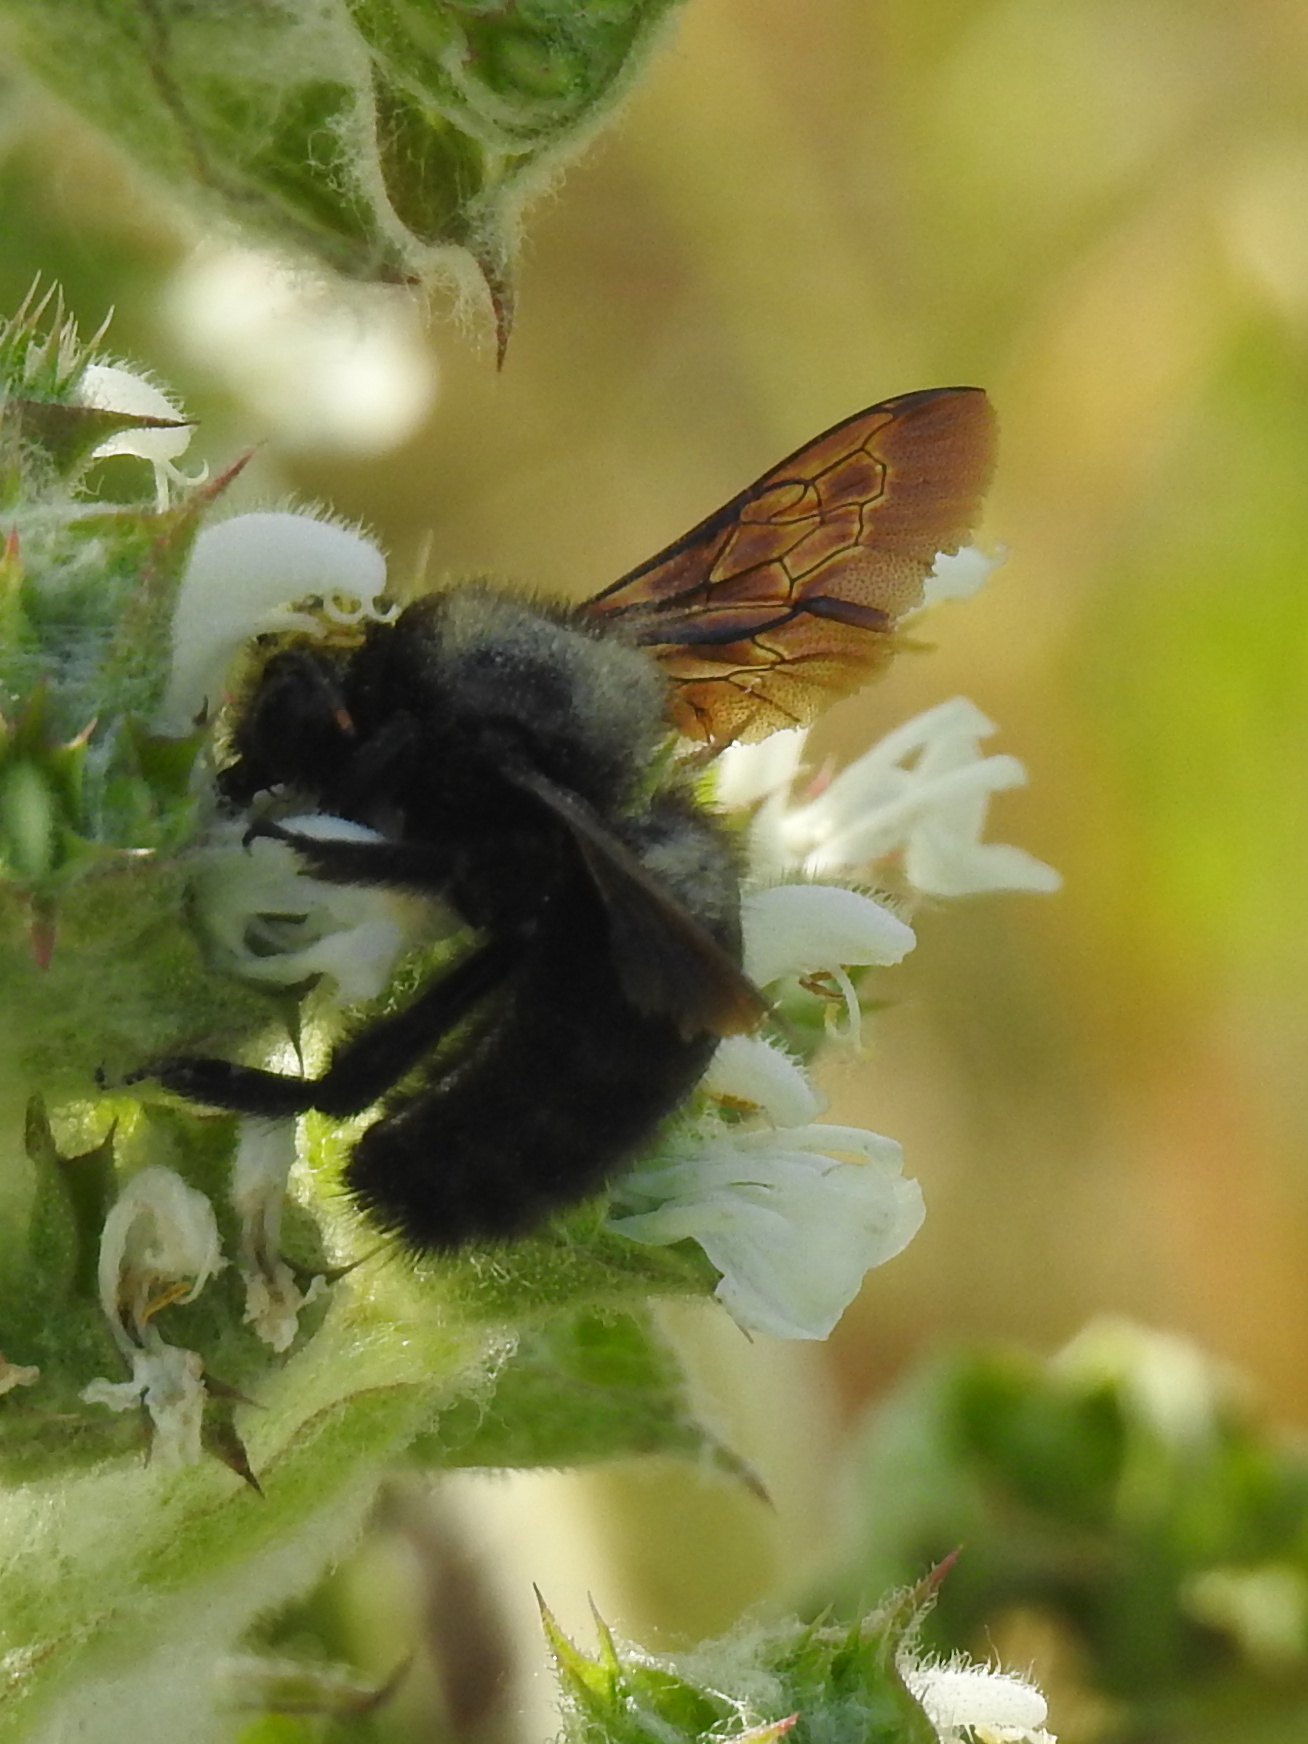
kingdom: Animalia
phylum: Arthropoda
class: Insecta
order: Hymenoptera
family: Apidae
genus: Xylocopa
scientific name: Xylocopa violacea
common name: Violet carpenter bee
